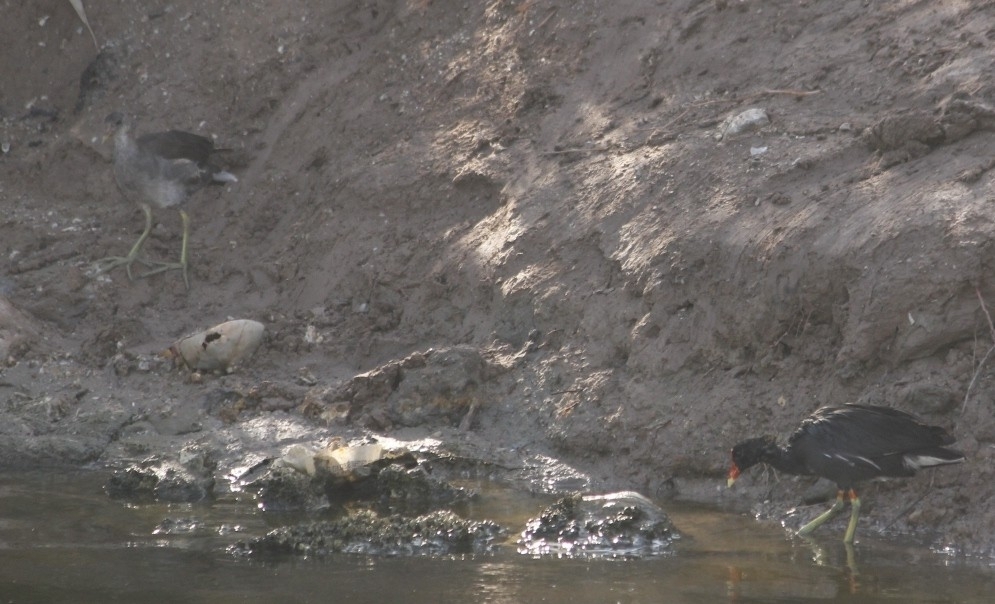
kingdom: Animalia
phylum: Chordata
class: Aves
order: Gruiformes
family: Rallidae
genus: Gallinula
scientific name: Gallinula chloropus
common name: Common moorhen
